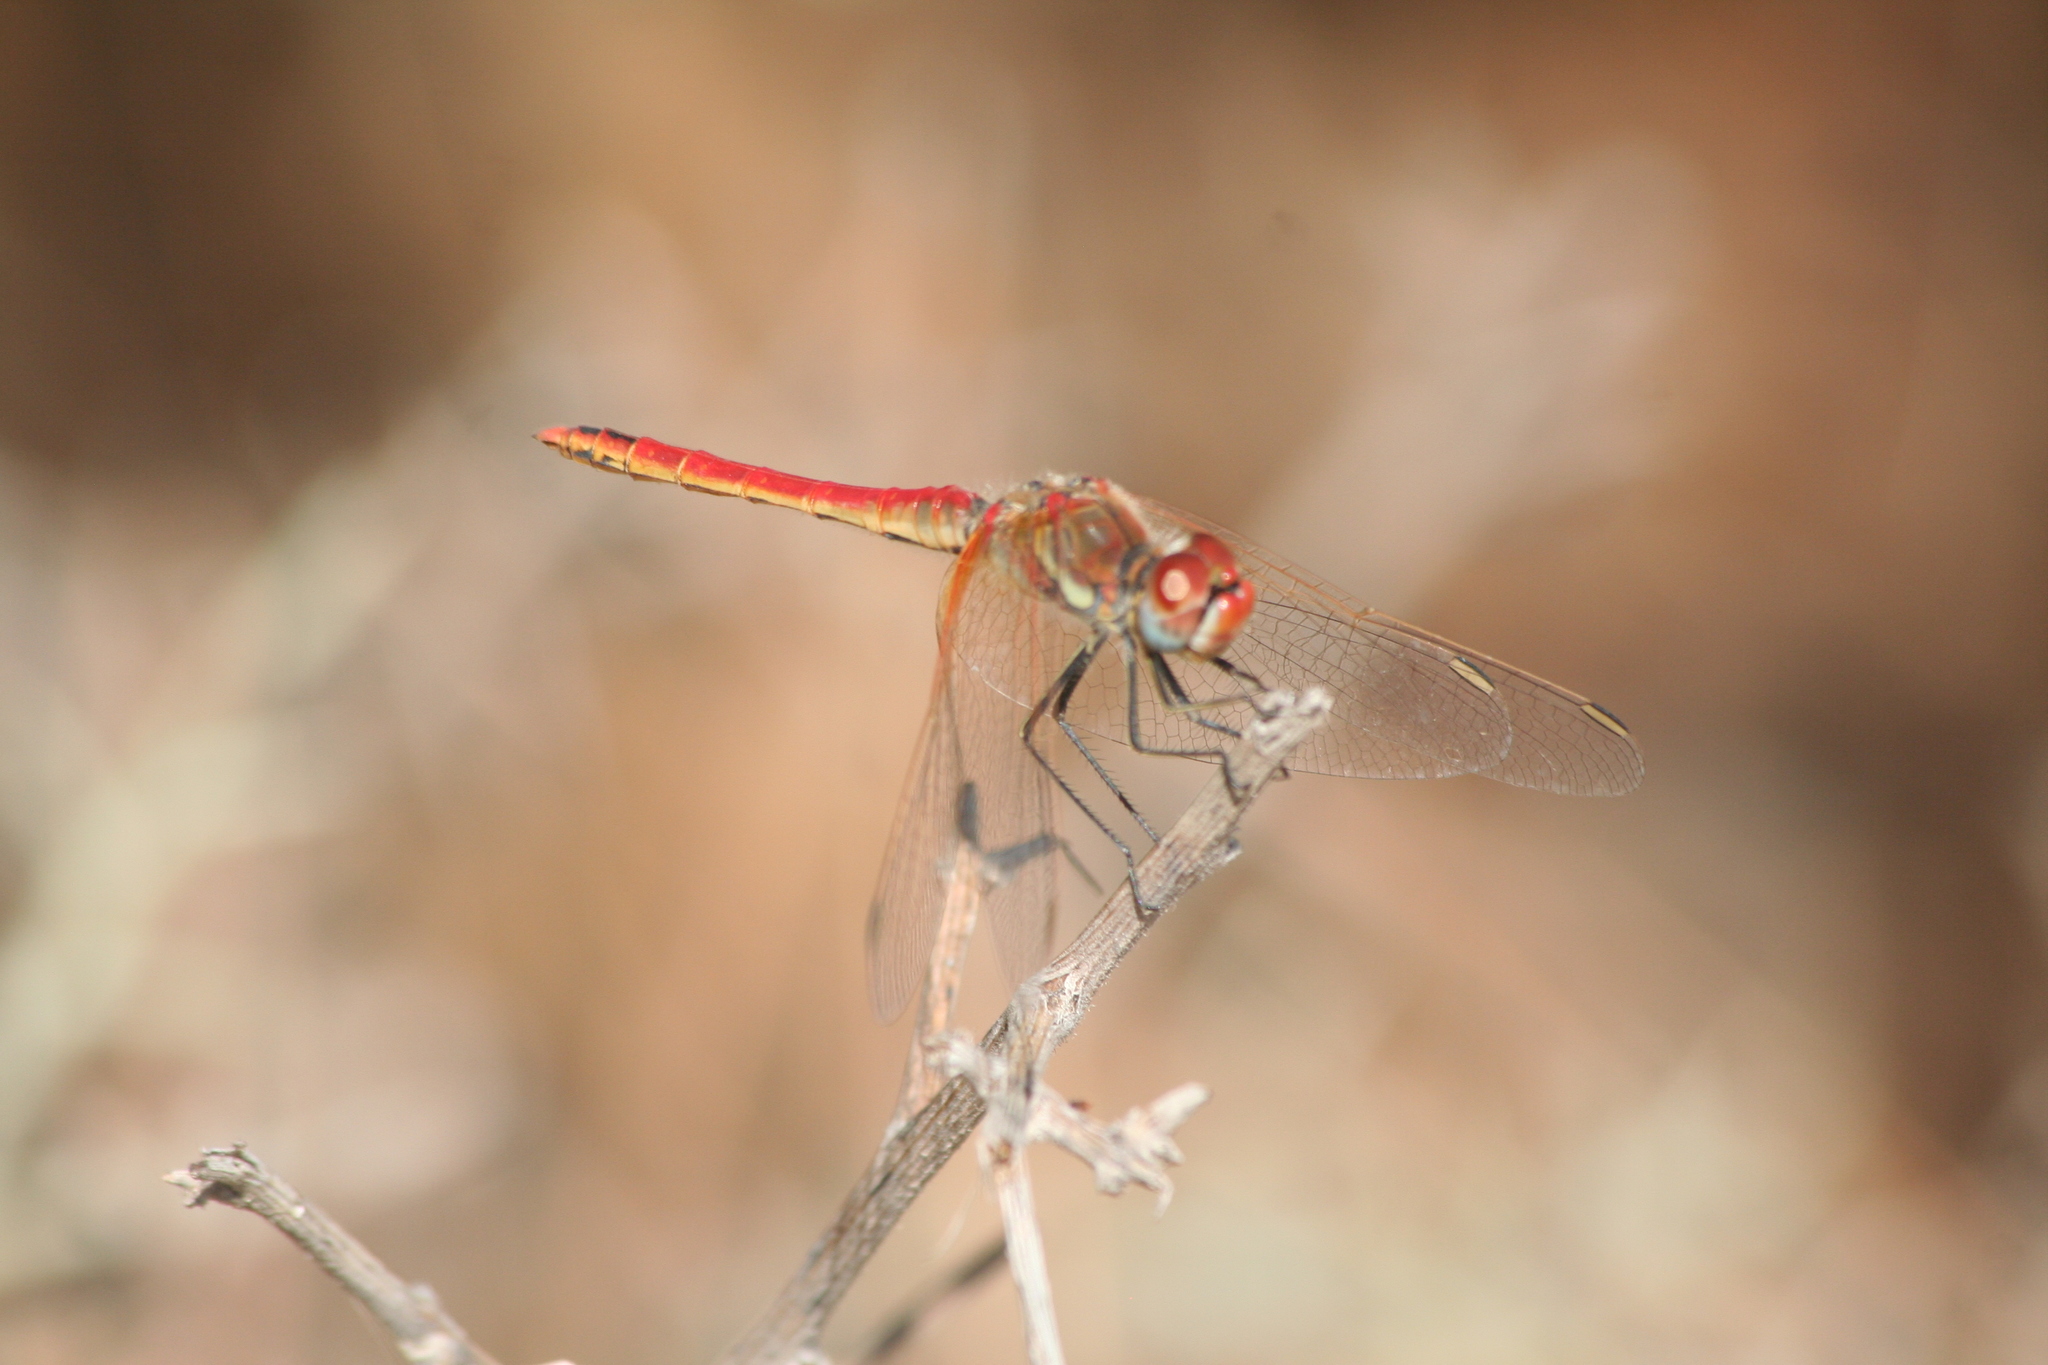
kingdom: Animalia
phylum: Arthropoda
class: Insecta
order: Odonata
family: Libellulidae
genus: Sympetrum
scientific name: Sympetrum fonscolombii
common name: Red-veined darter
